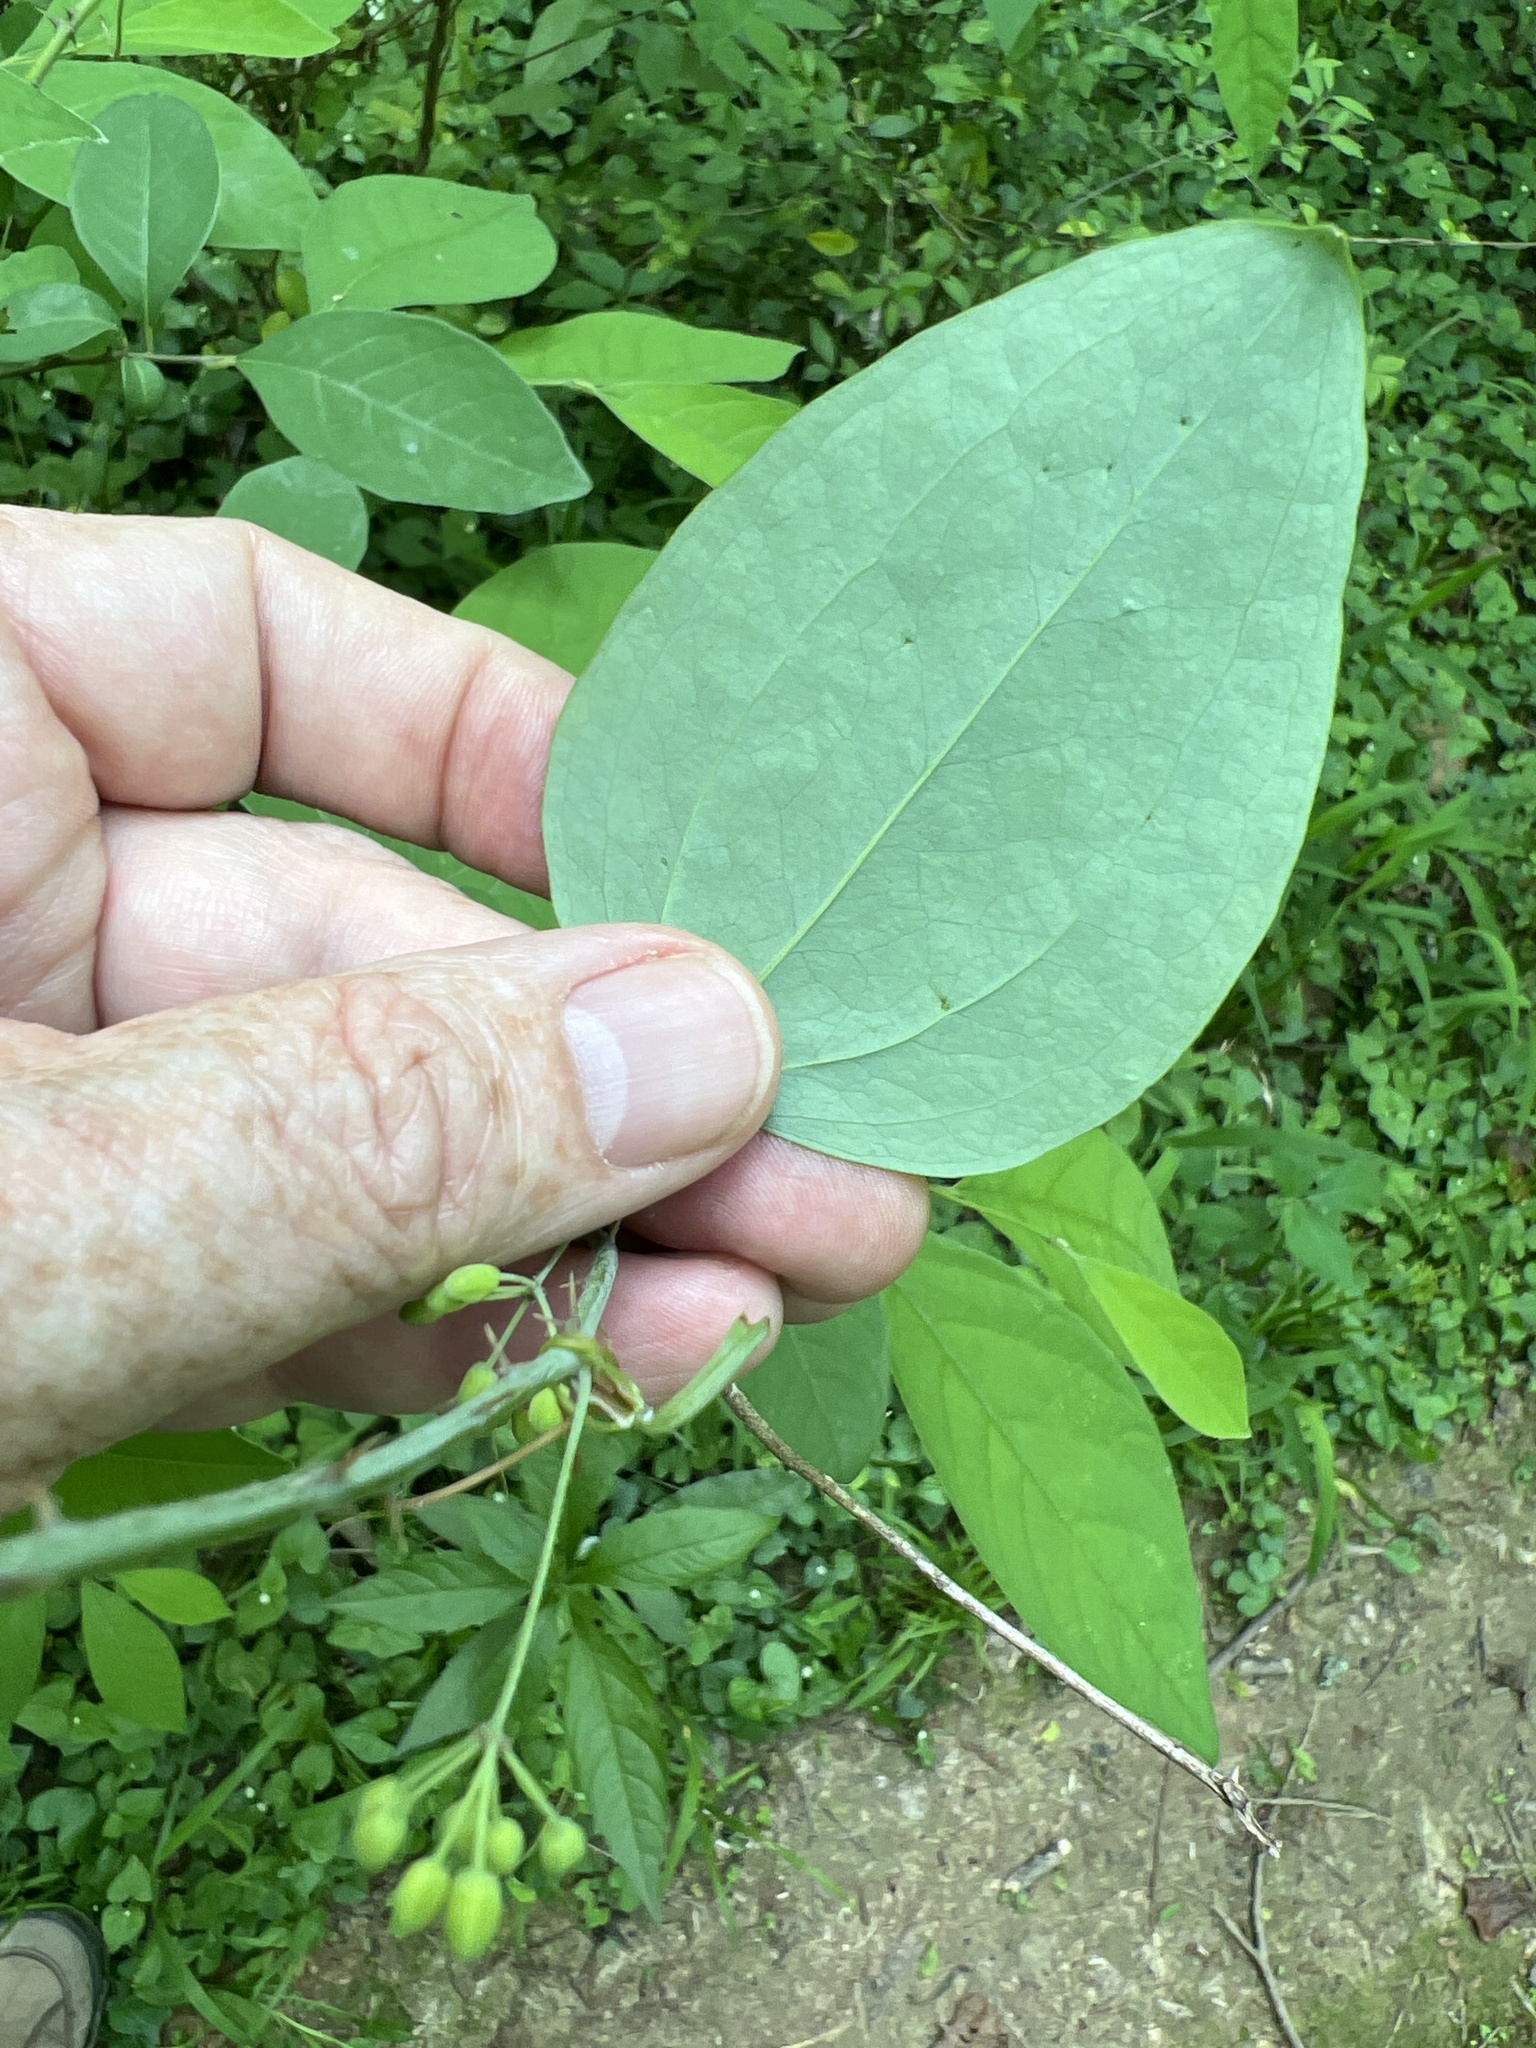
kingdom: Plantae
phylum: Tracheophyta
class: Liliopsida
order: Liliales
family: Smilacaceae
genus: Smilax
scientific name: Smilax glauca
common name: Cat greenbrier
